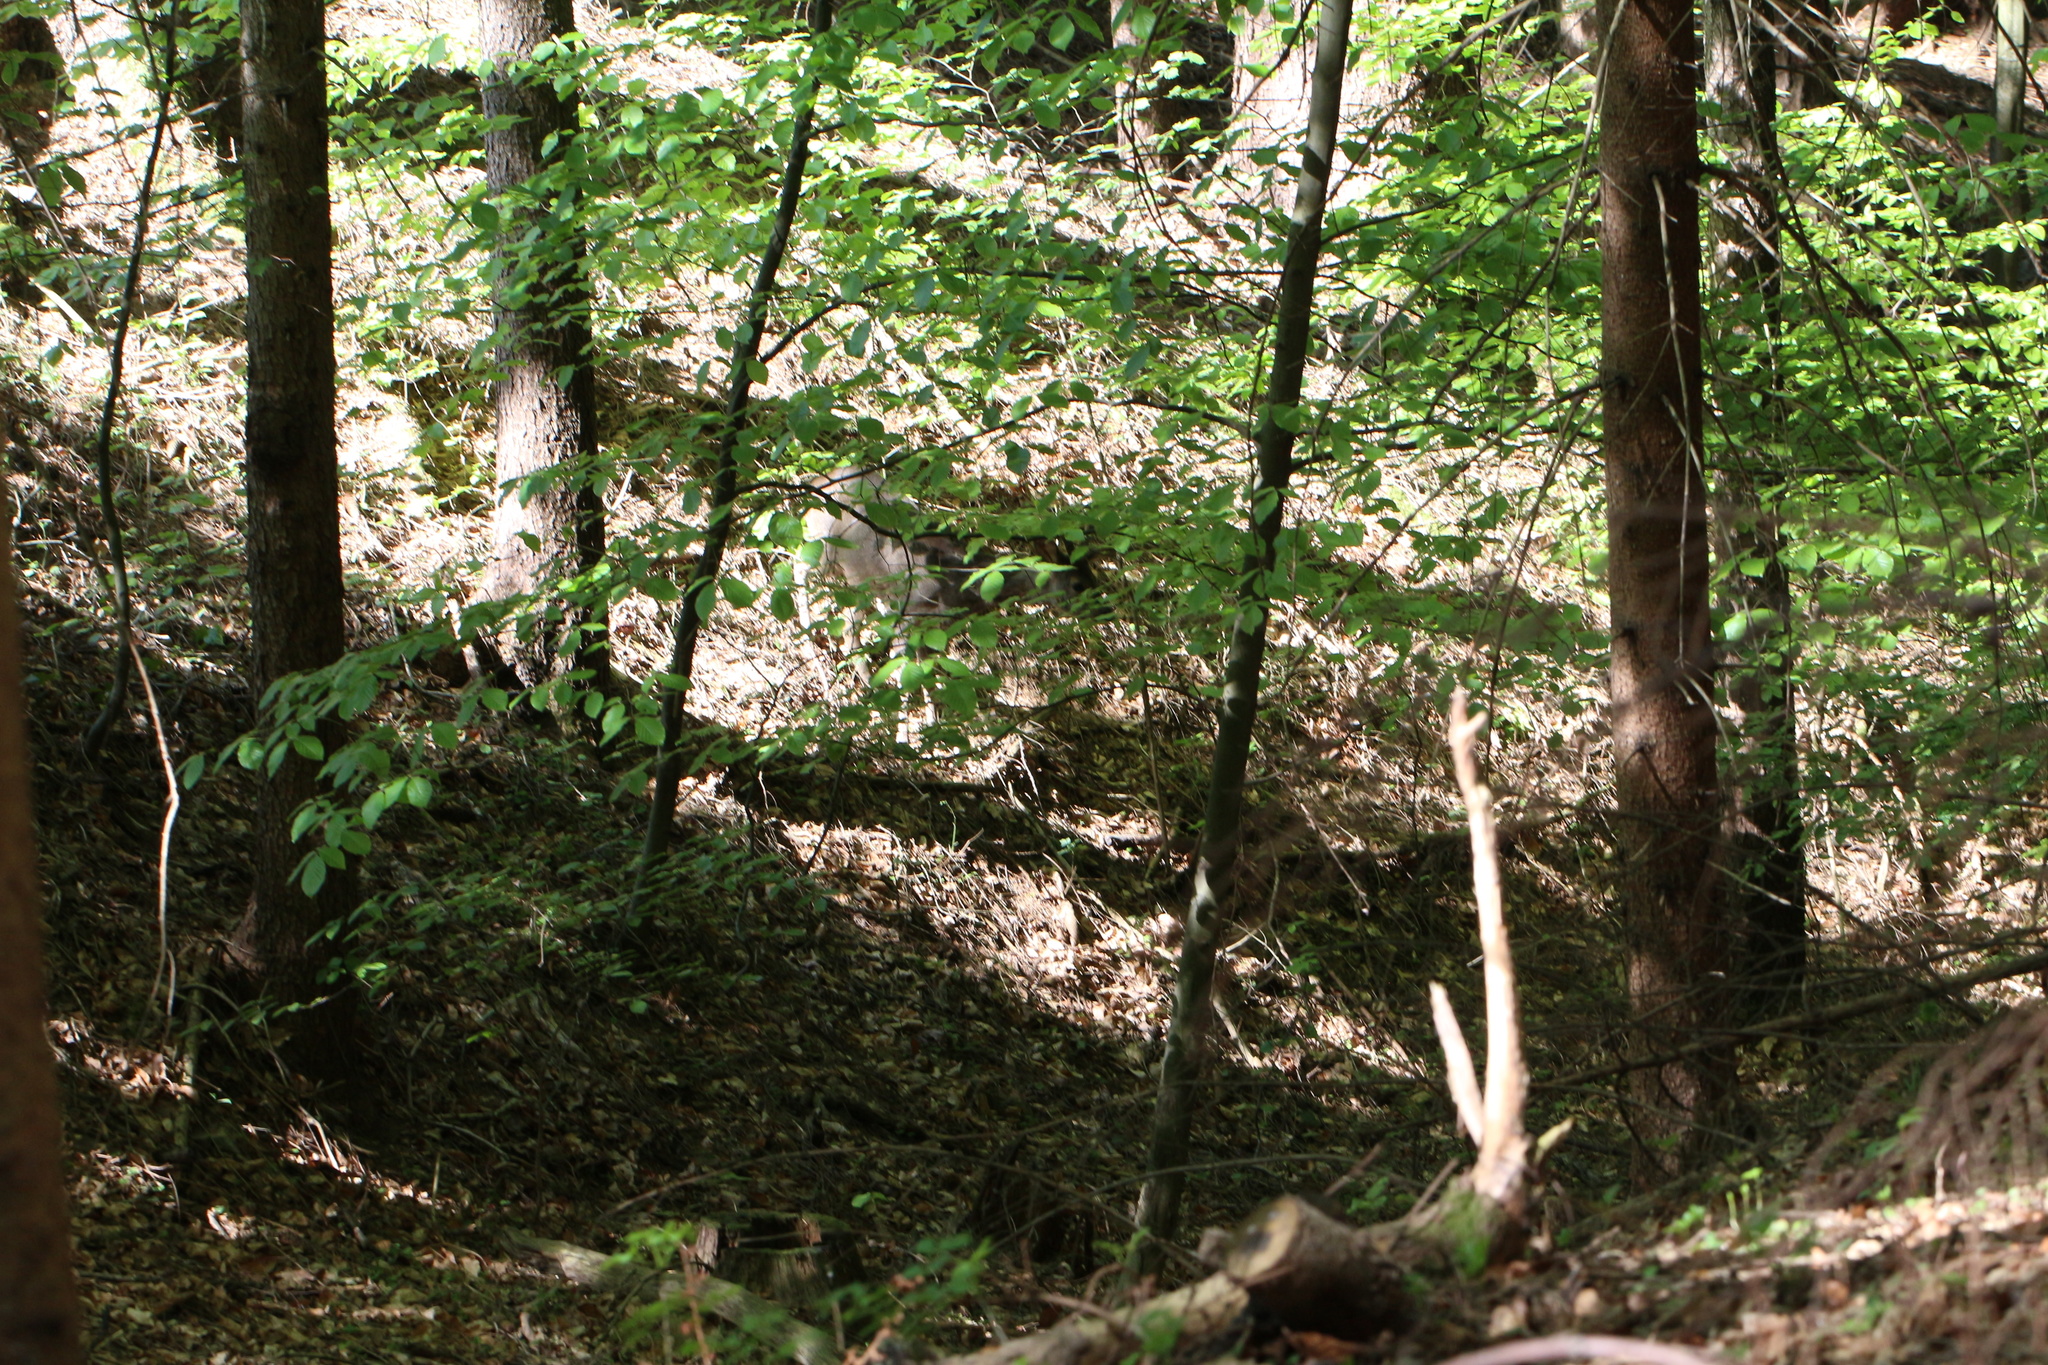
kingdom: Animalia
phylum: Chordata
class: Mammalia
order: Artiodactyla
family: Cervidae
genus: Capreolus
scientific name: Capreolus capreolus
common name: Western roe deer
